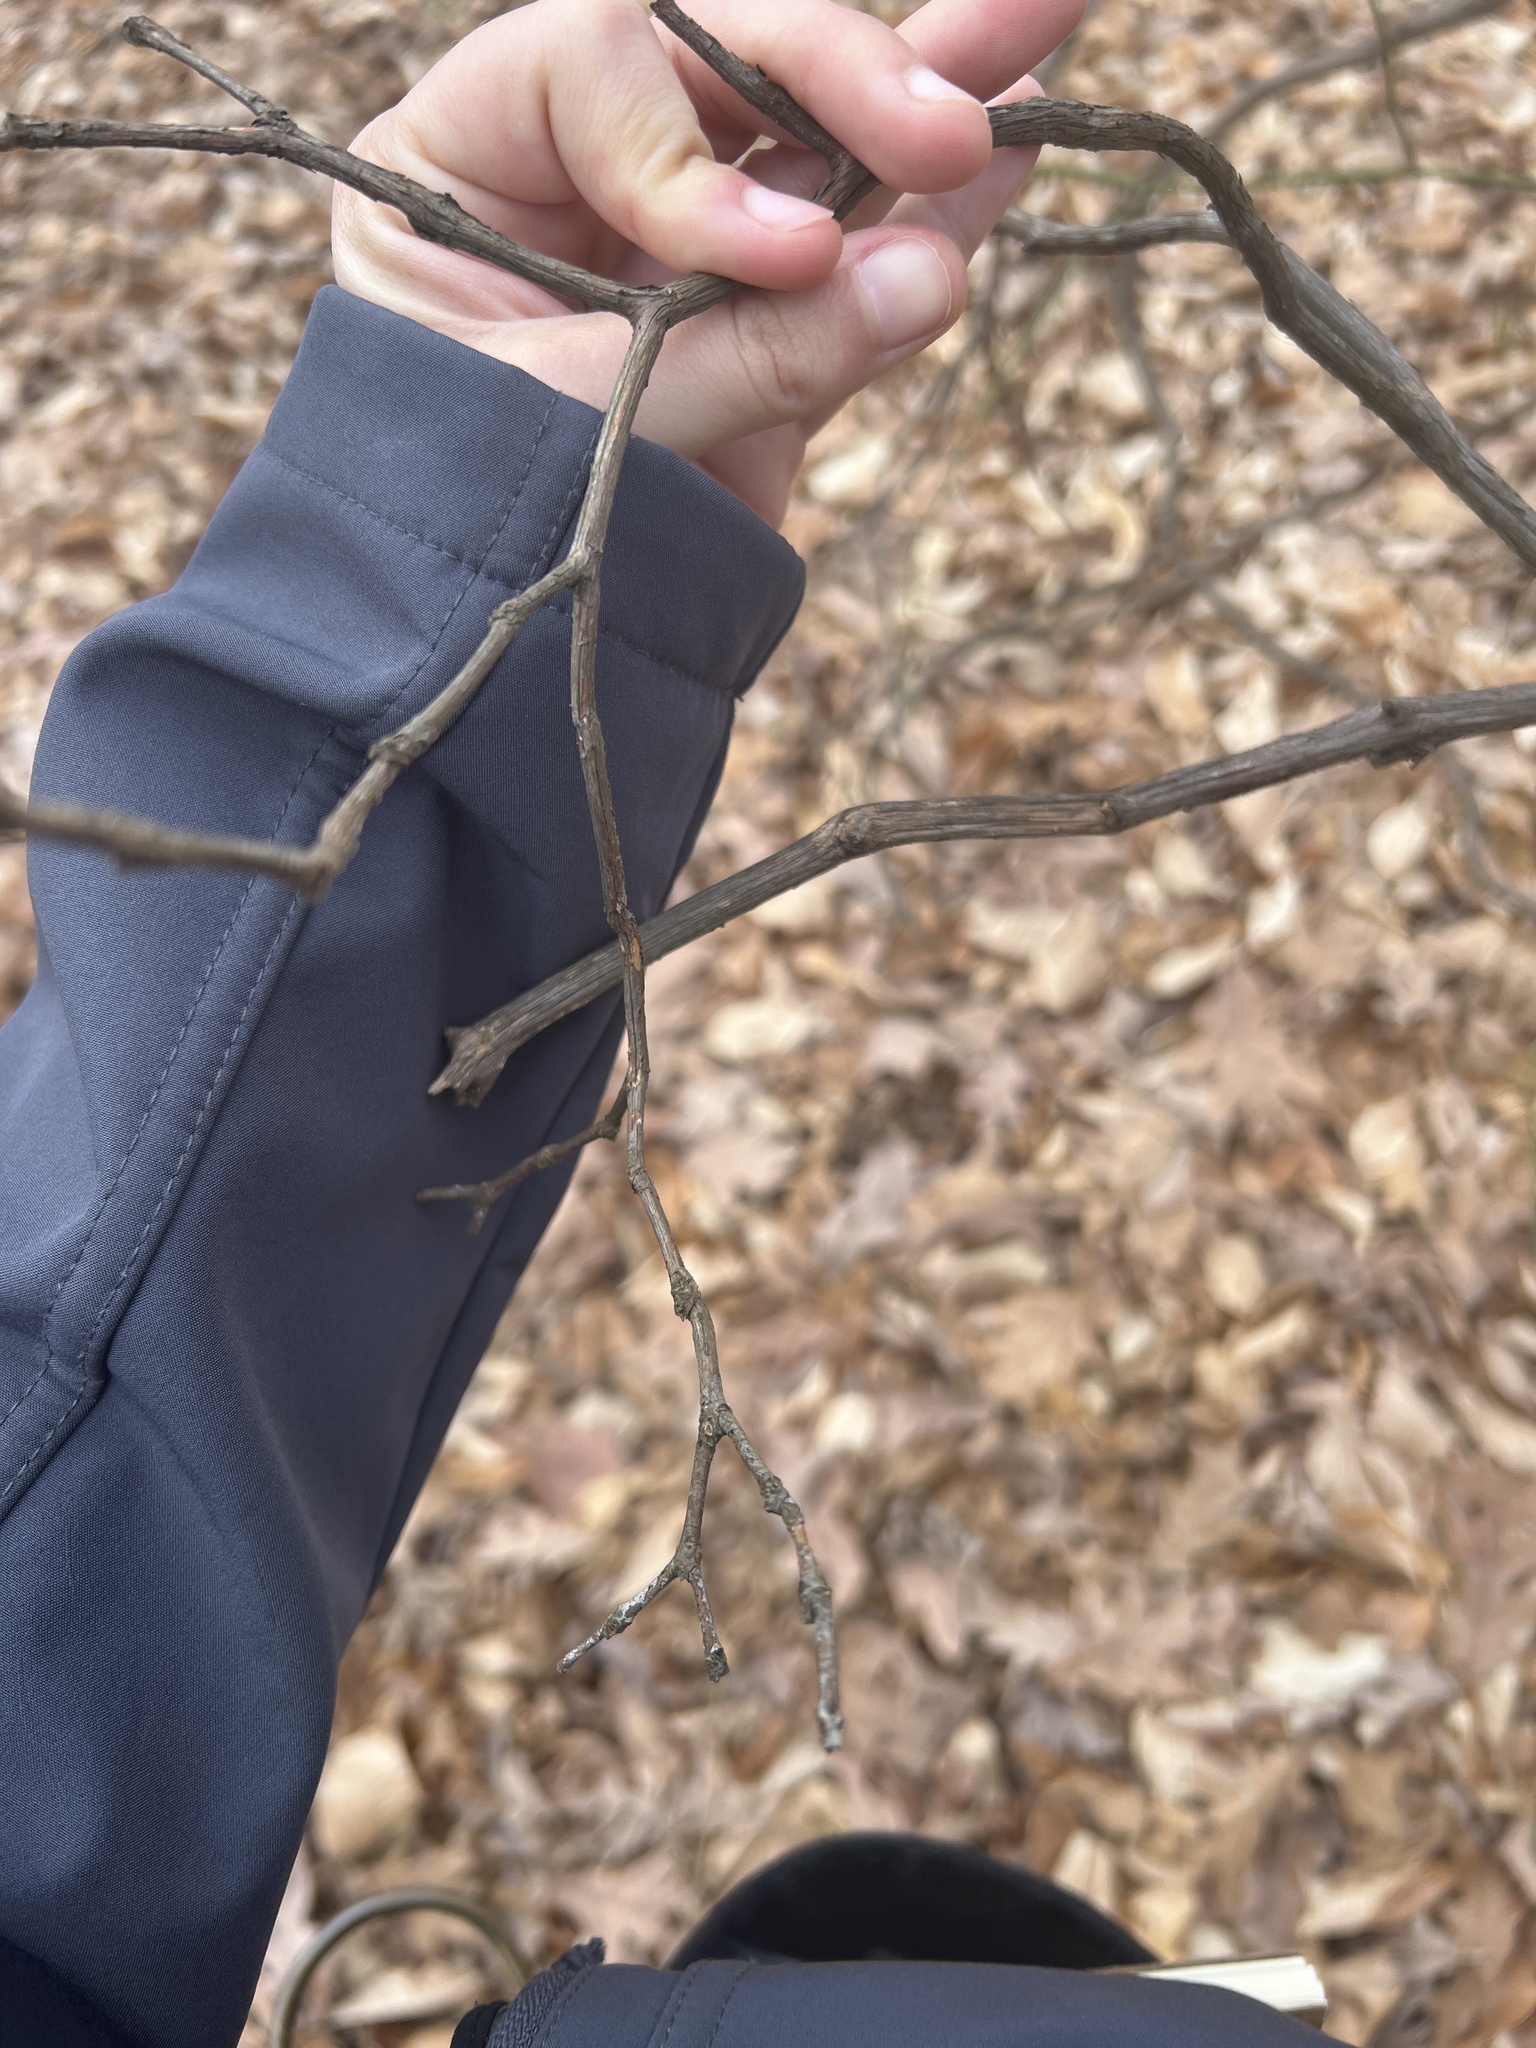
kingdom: Plantae
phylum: Tracheophyta
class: Magnoliopsida
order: Ericales
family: Ericaceae
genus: Kalmia
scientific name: Kalmia latifolia
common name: Mountain-laurel
